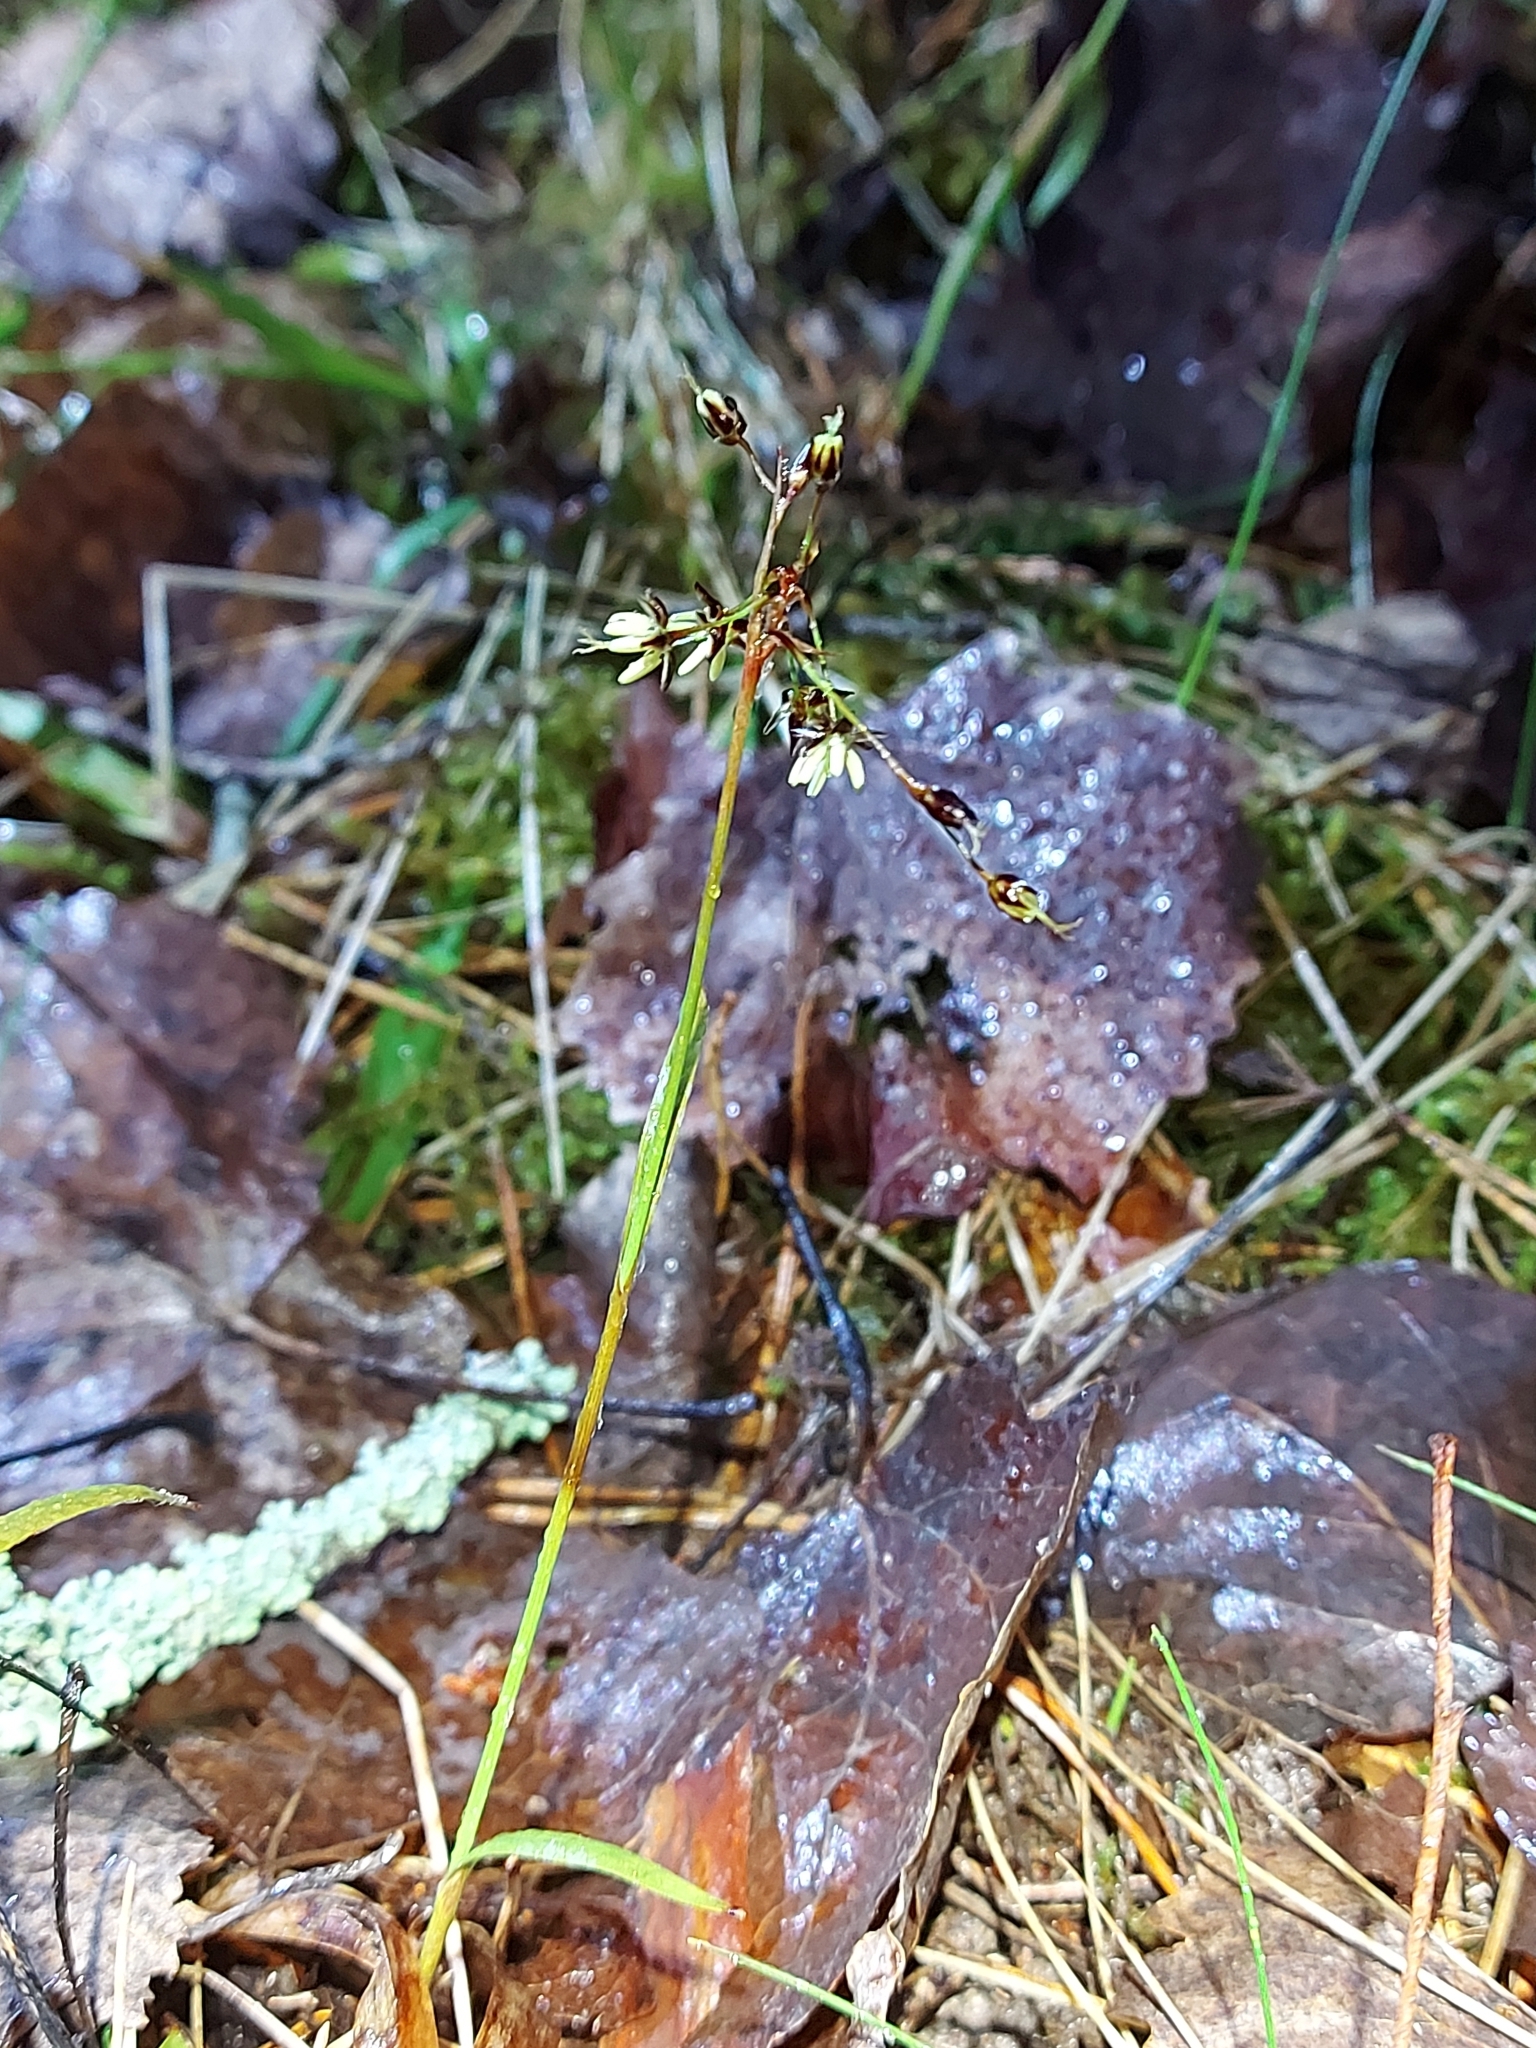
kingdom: Plantae
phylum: Tracheophyta
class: Liliopsida
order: Poales
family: Juncaceae
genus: Luzula
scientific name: Luzula pilosa
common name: Hairy wood-rush
